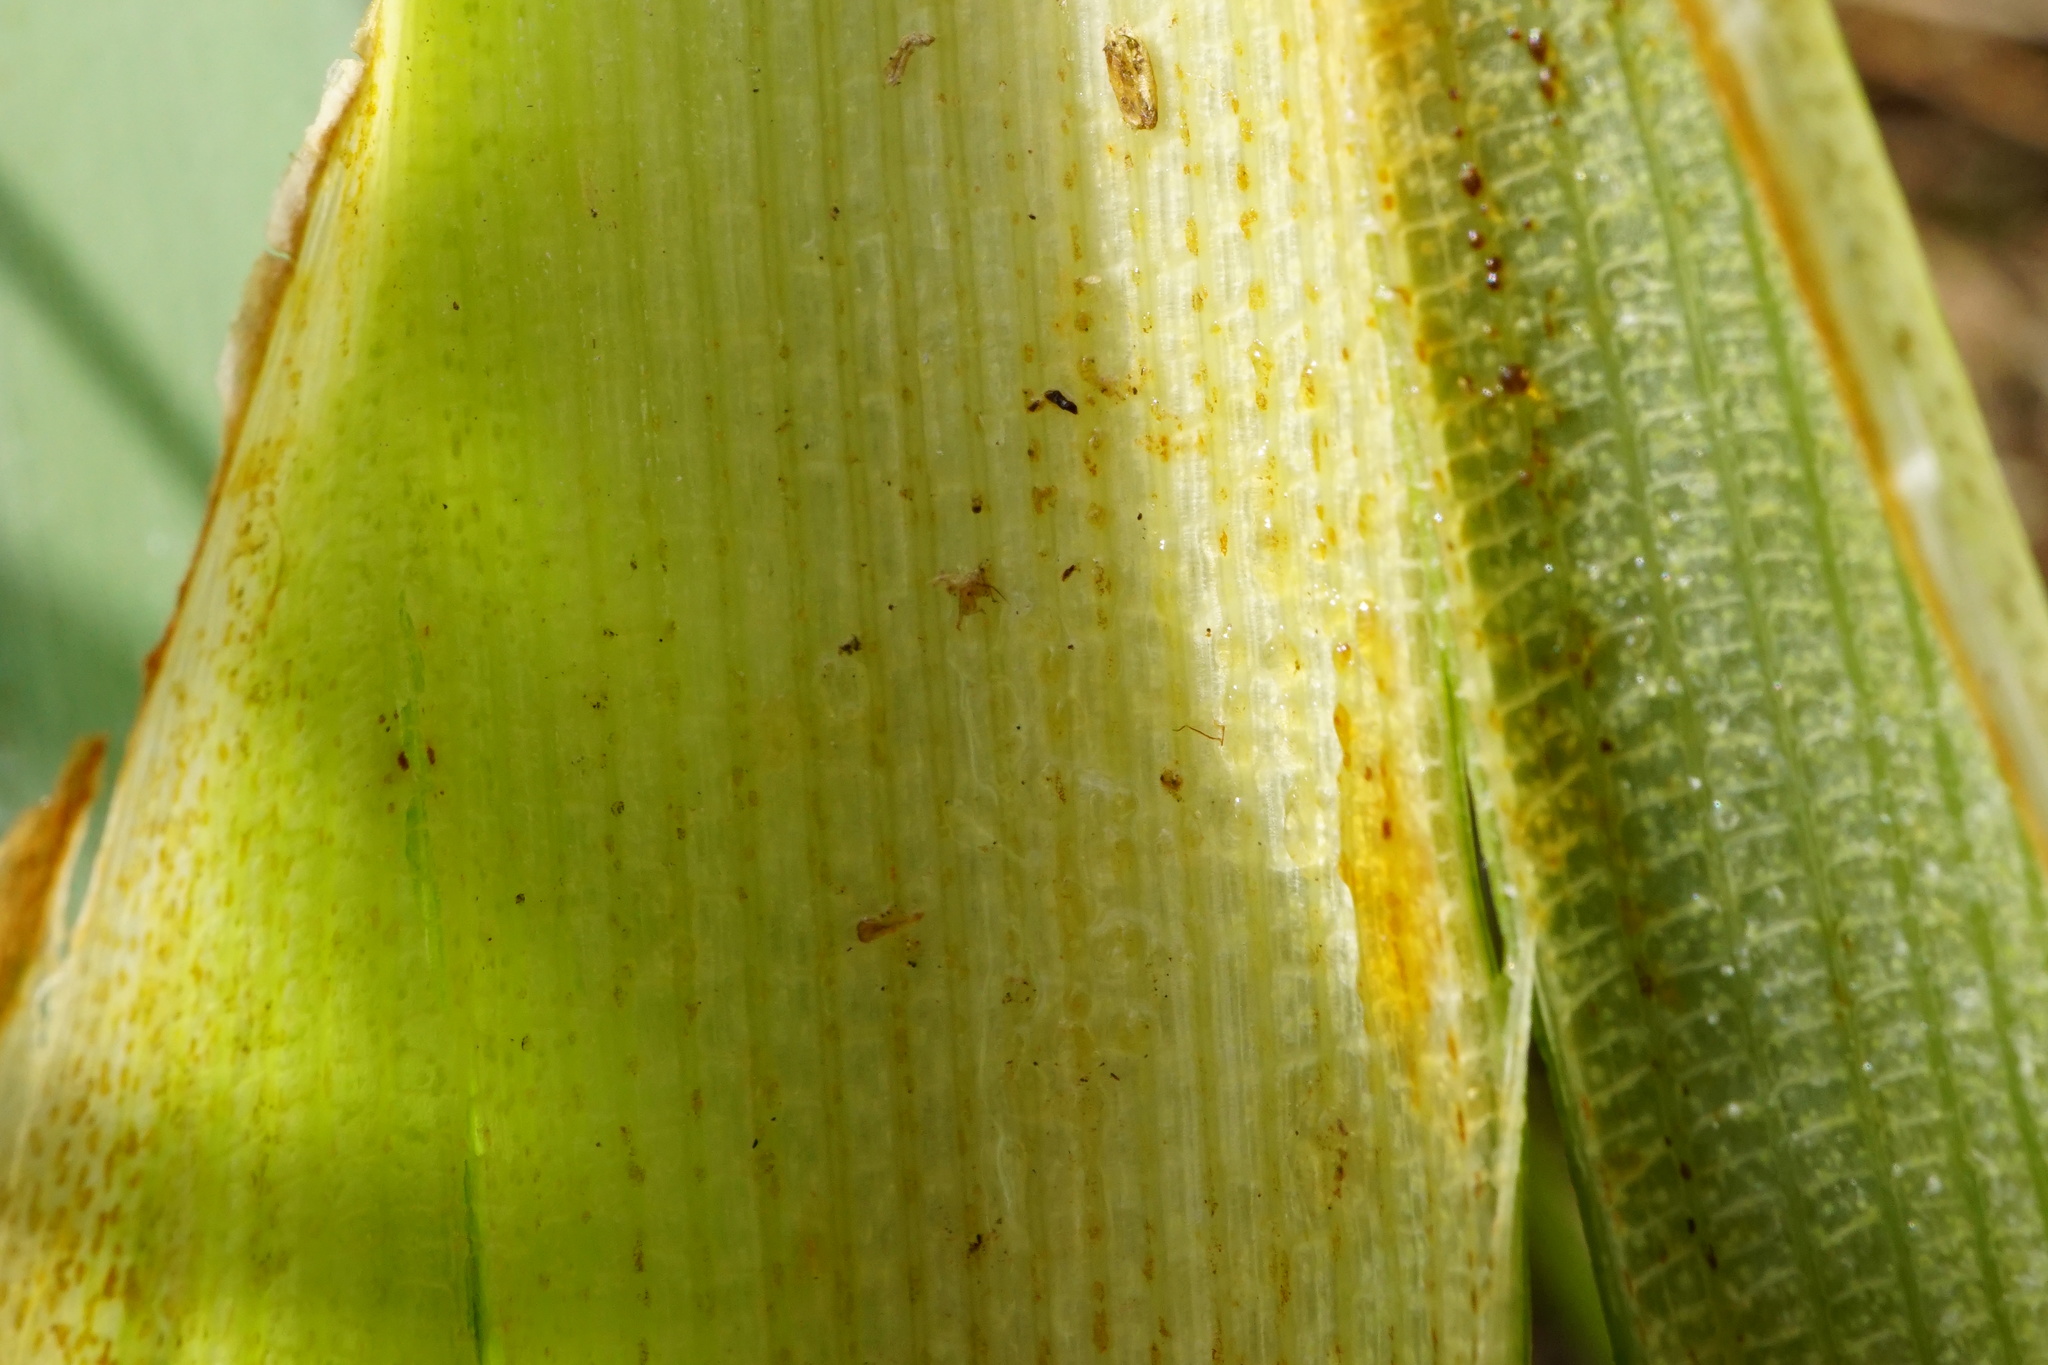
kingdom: Plantae
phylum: Tracheophyta
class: Liliopsida
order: Poales
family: Typhaceae
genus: Typha
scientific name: Typha latifolia
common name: Broadleaf cattail
